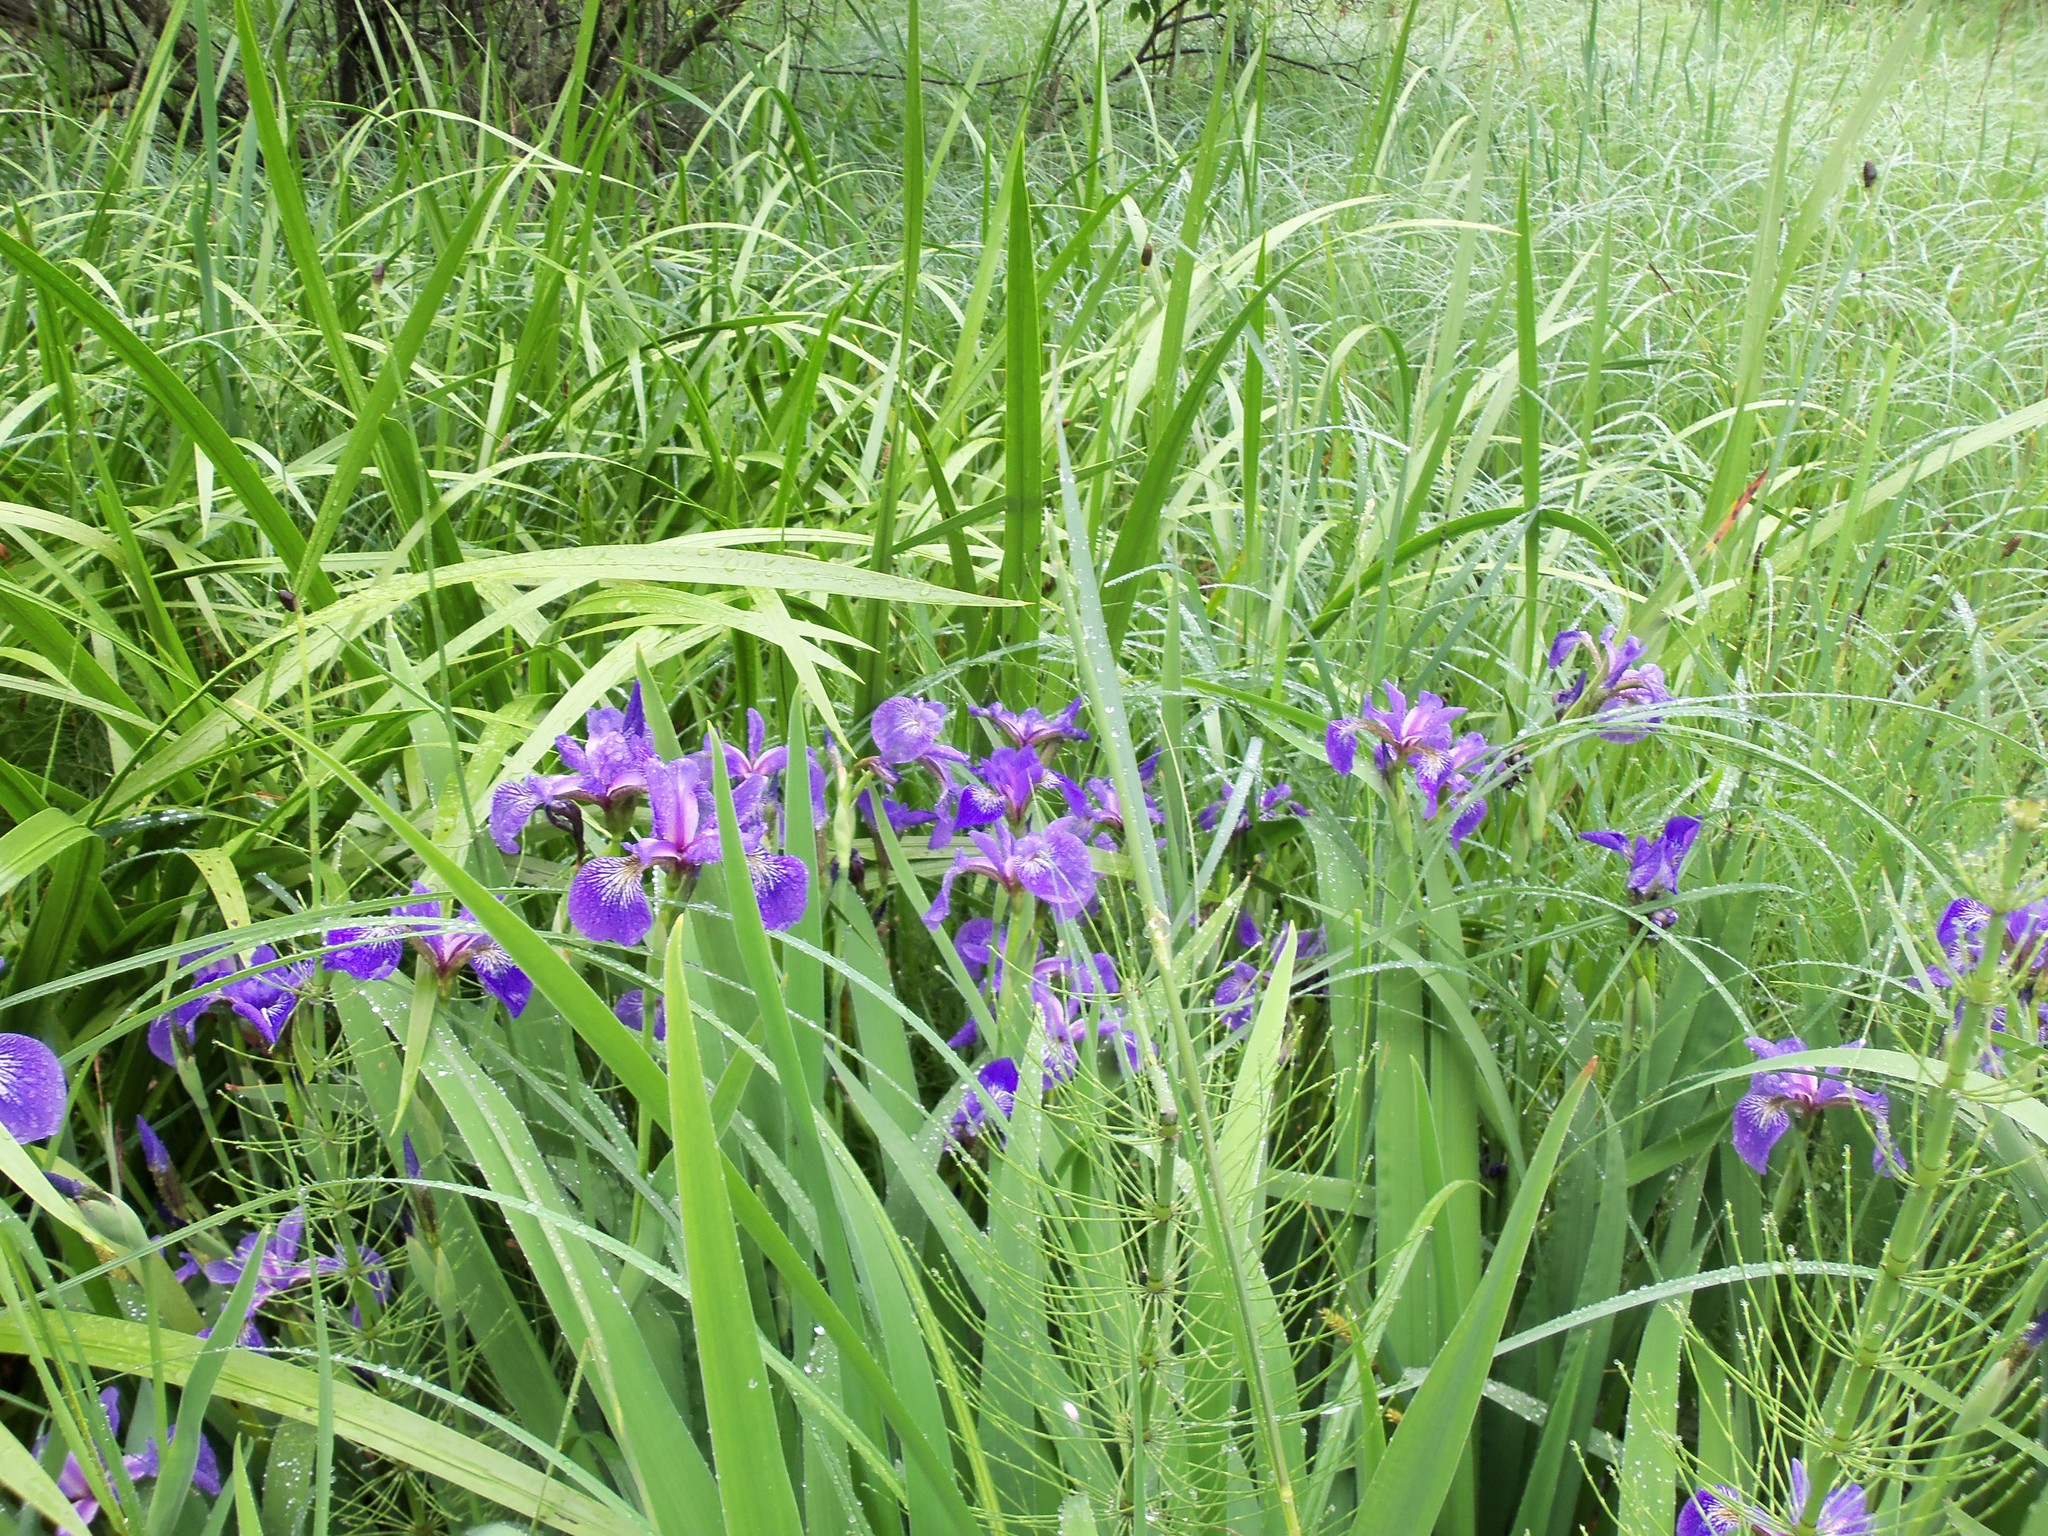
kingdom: Plantae
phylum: Tracheophyta
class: Liliopsida
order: Asparagales
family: Iridaceae
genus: Iris
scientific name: Iris versicolor
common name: Purple iris
